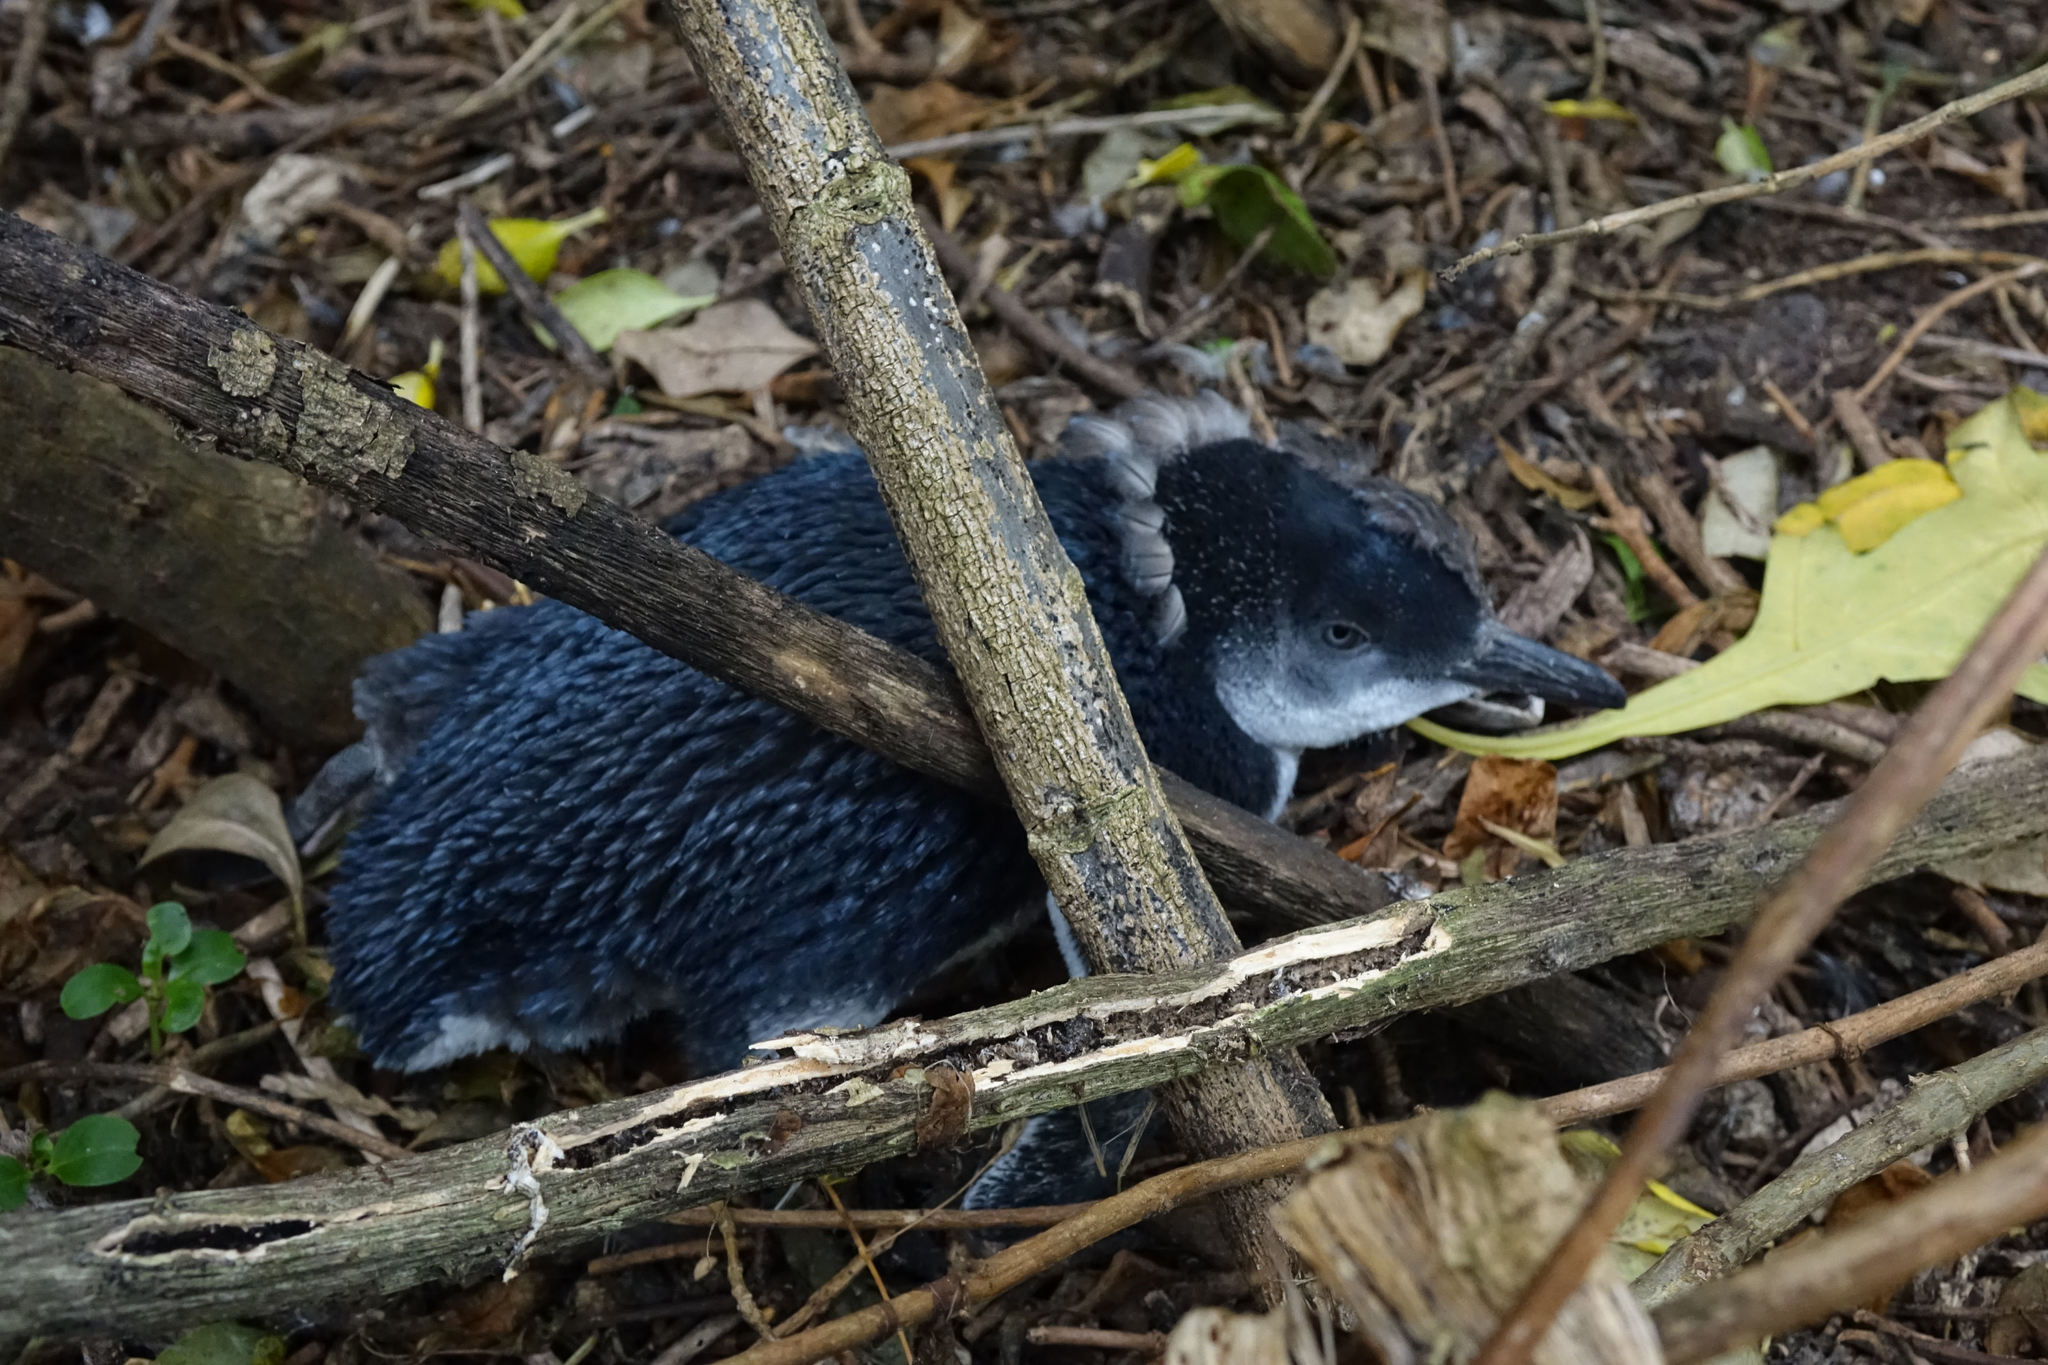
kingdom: Animalia
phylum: Chordata
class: Aves
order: Sphenisciformes
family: Spheniscidae
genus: Eudyptula
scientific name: Eudyptula minor
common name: Little penguin
